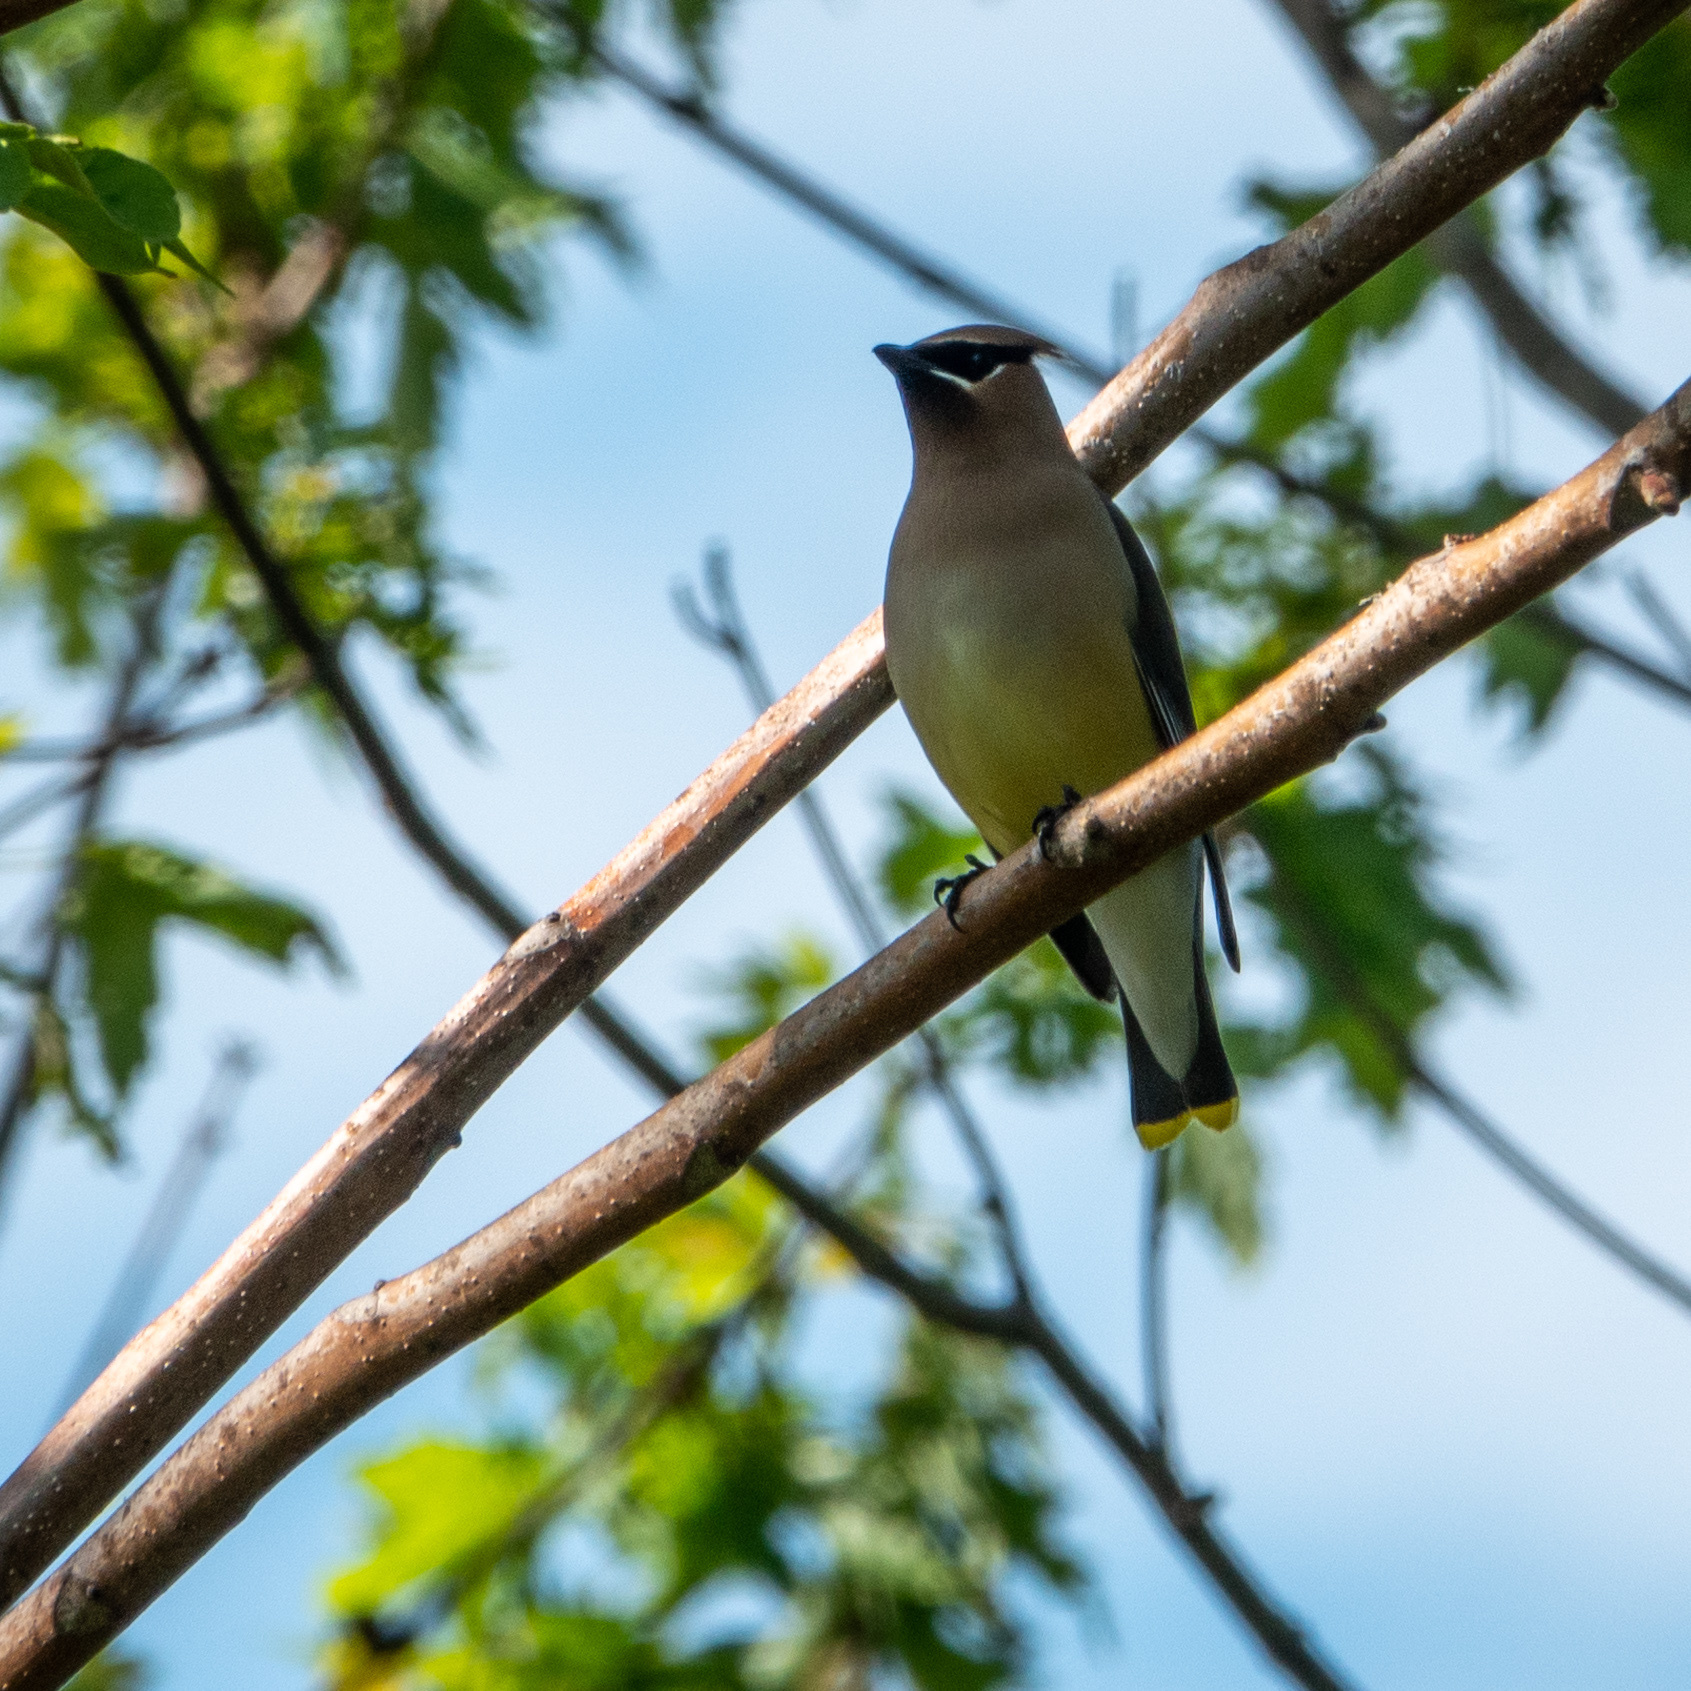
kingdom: Animalia
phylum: Chordata
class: Aves
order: Passeriformes
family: Bombycillidae
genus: Bombycilla
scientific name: Bombycilla cedrorum
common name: Cedar waxwing
